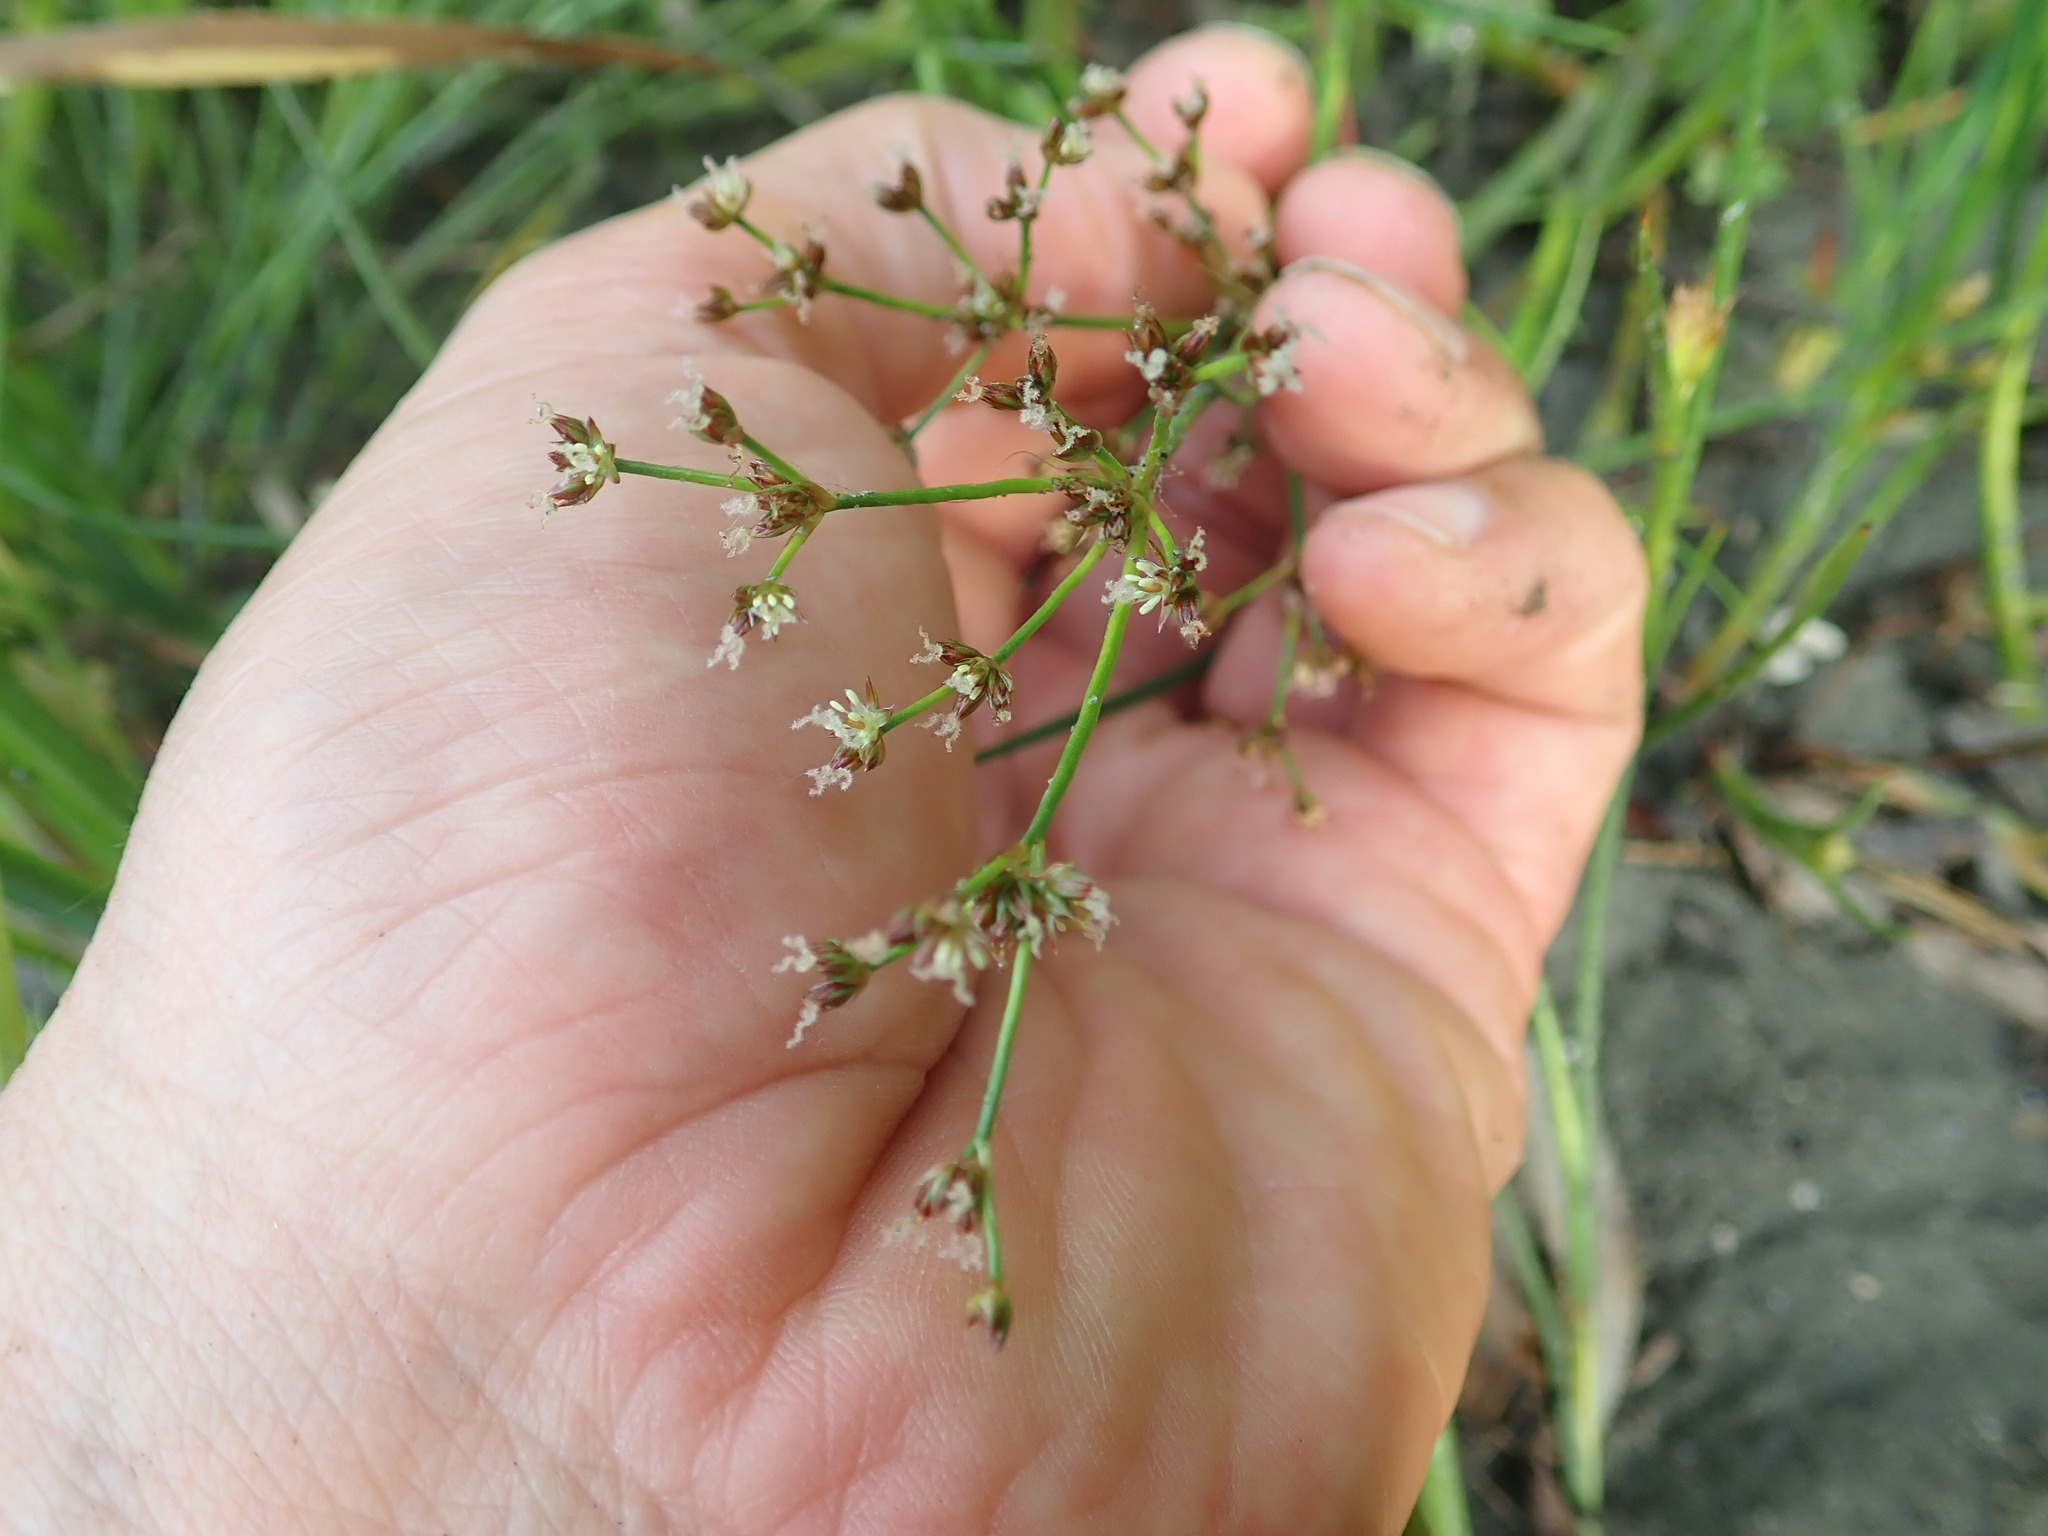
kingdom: Plantae
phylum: Tracheophyta
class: Liliopsida
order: Poales
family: Juncaceae
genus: Juncus
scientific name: Juncus articulatus
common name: Jointed rush
